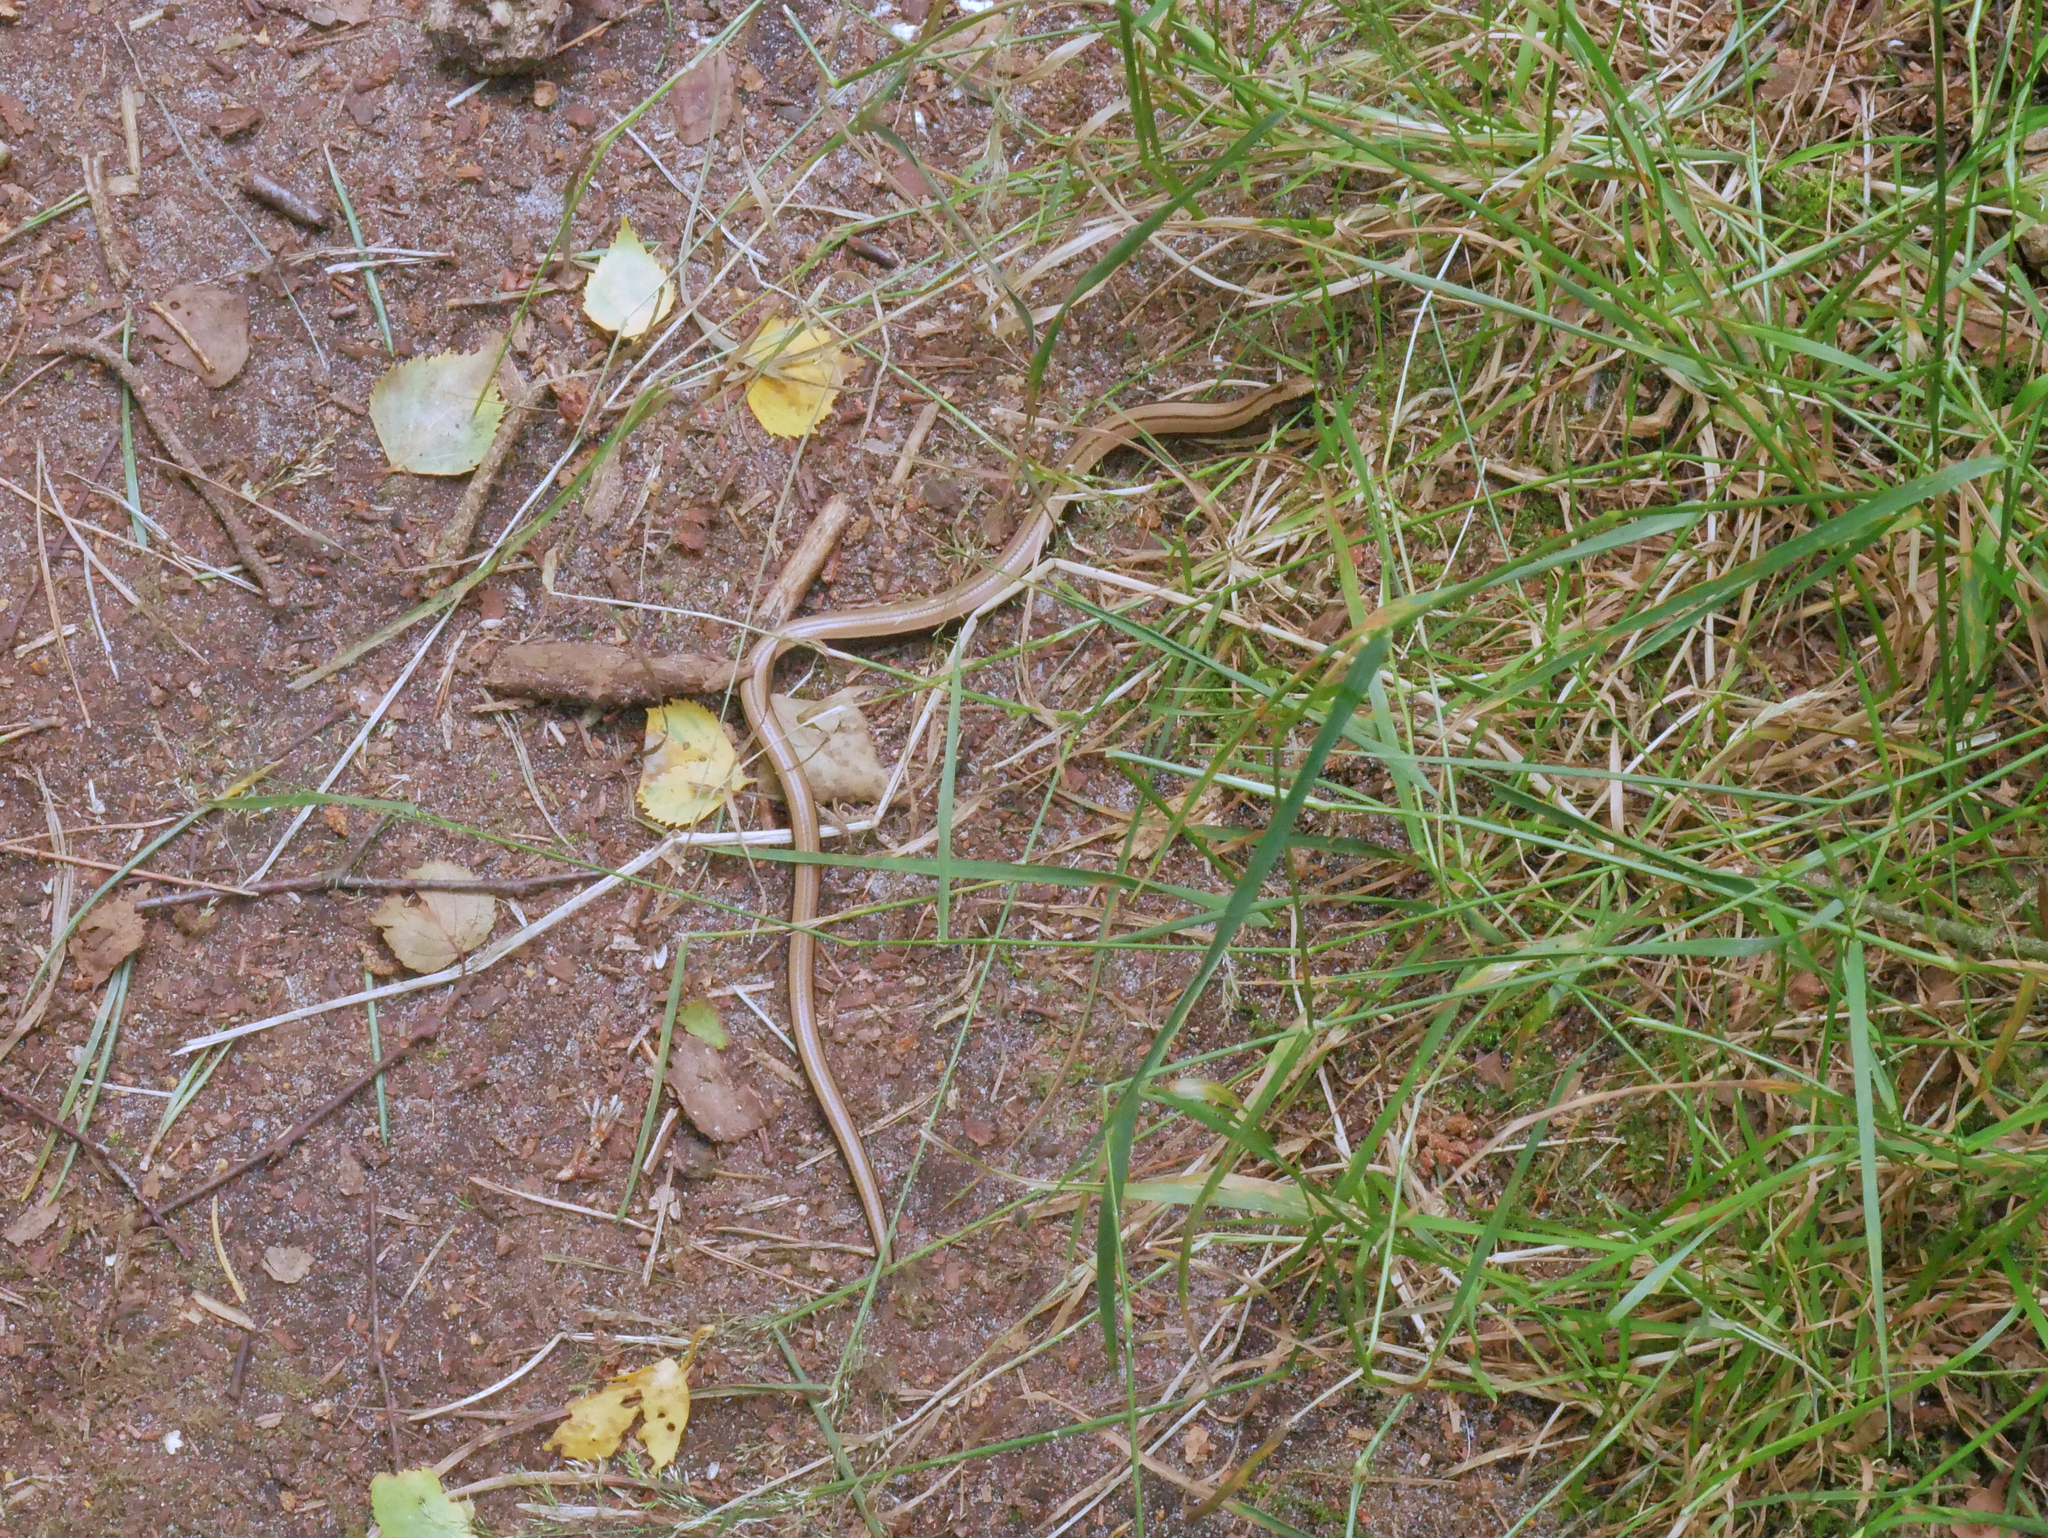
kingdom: Animalia
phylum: Chordata
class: Squamata
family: Anguidae
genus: Anguis
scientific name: Anguis fragilis
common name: Slow worm
